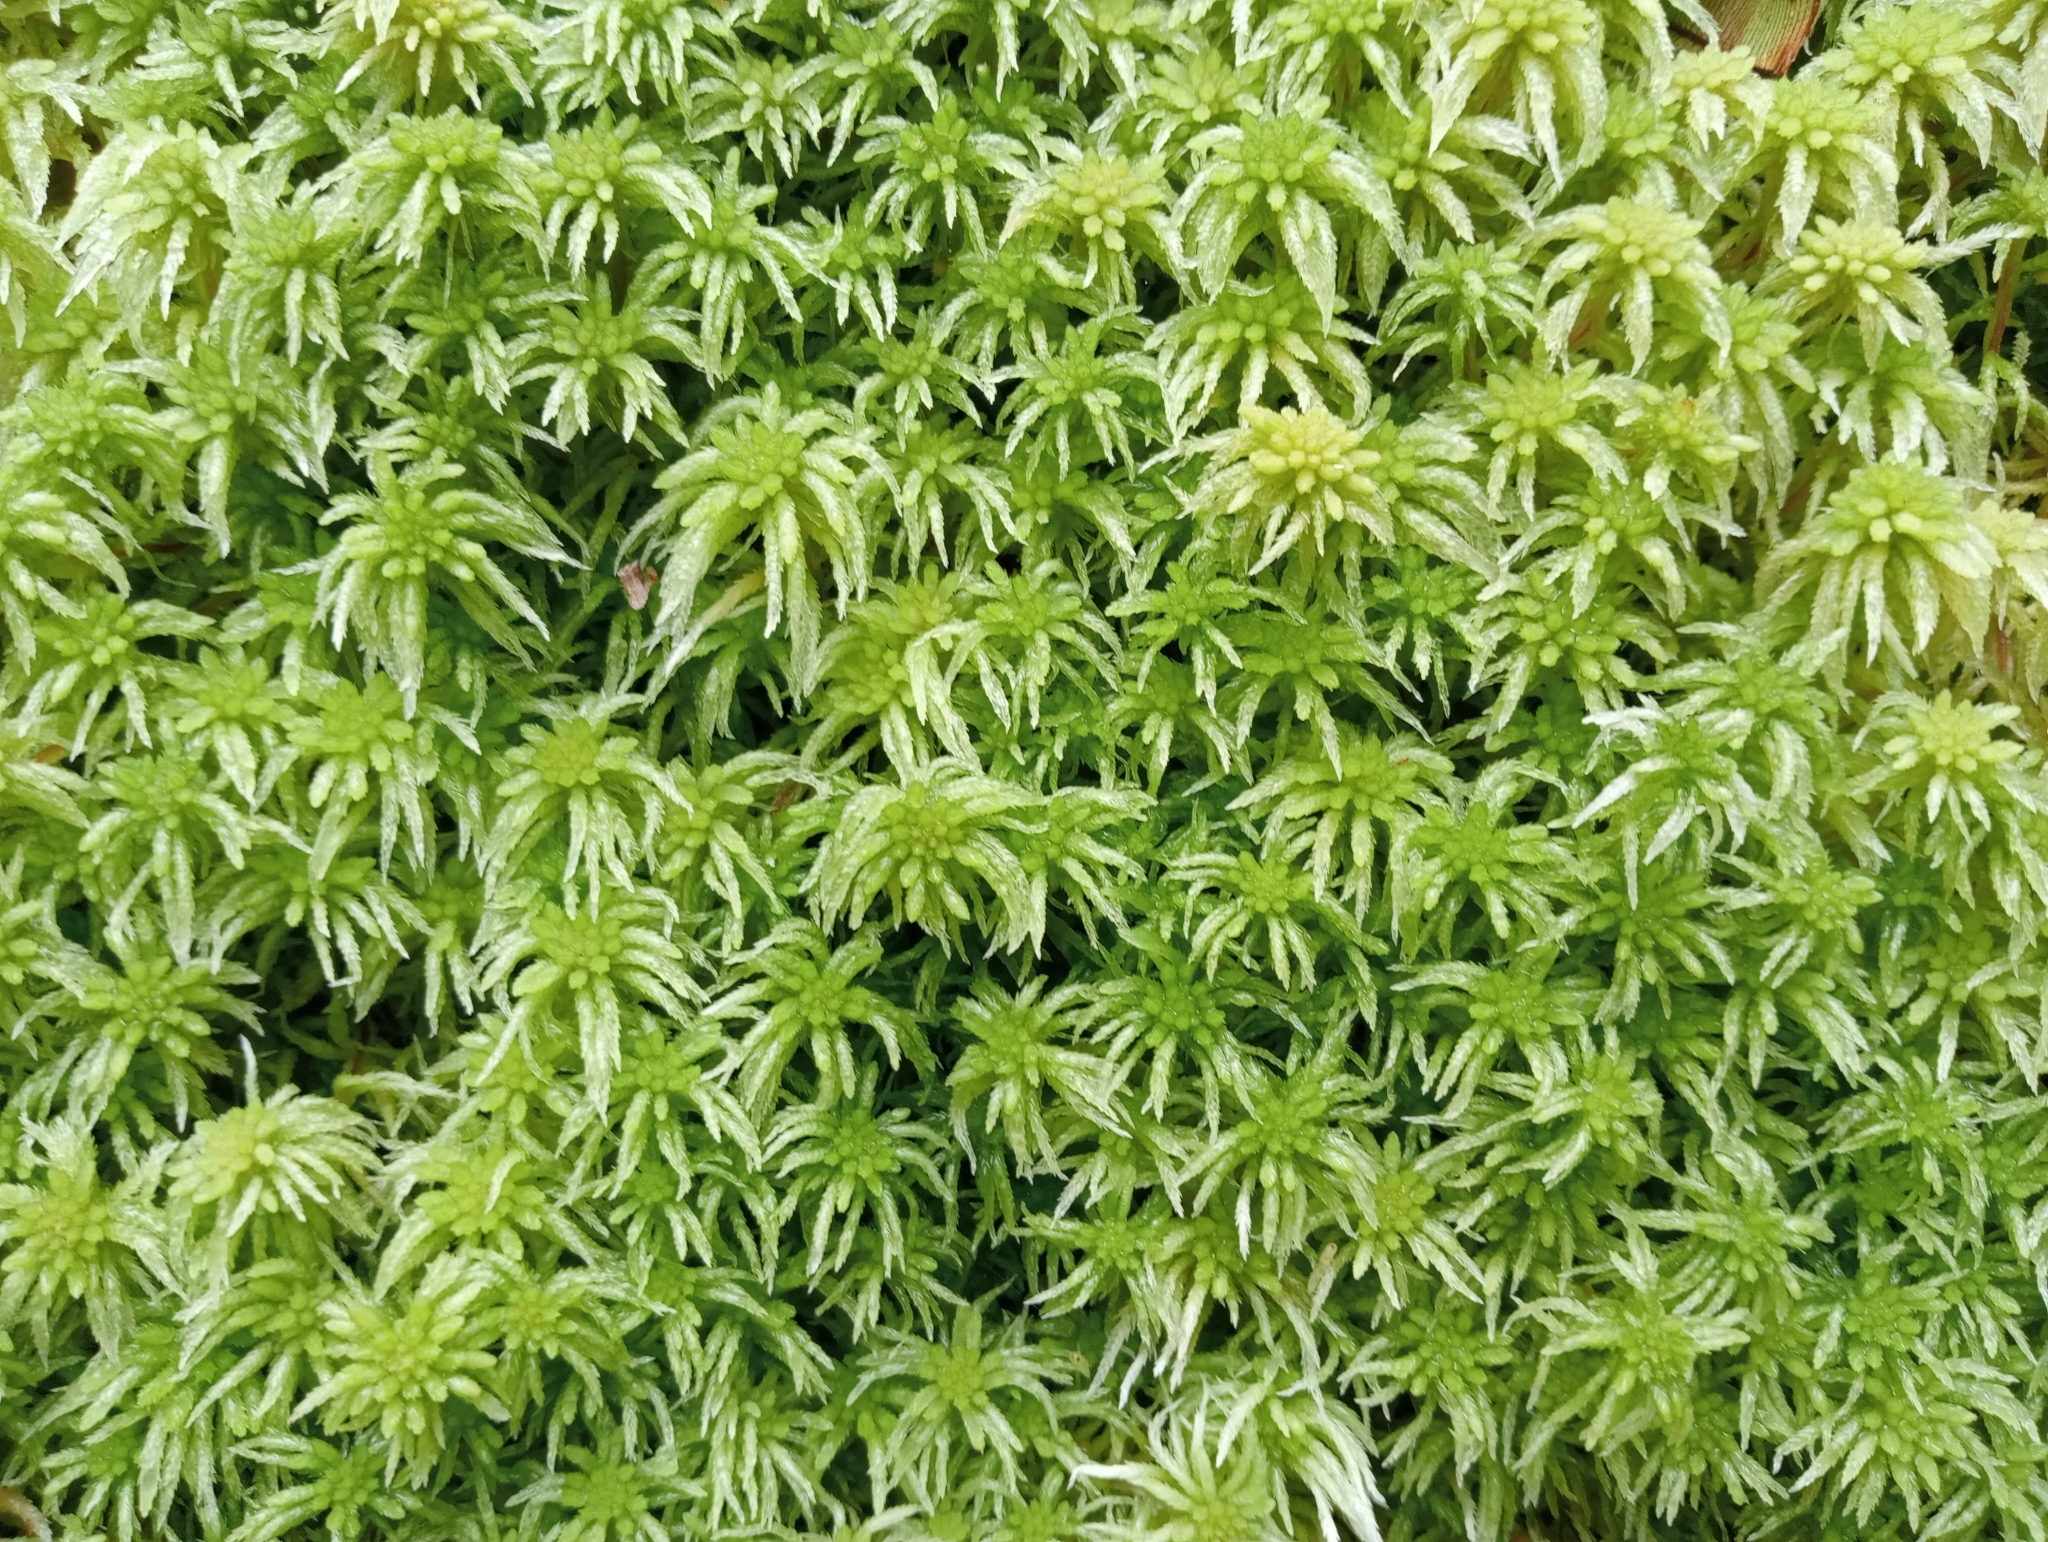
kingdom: Plantae
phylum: Bryophyta
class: Sphagnopsida
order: Sphagnales
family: Sphagnaceae
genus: Sphagnum
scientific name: Sphagnum cristatum
